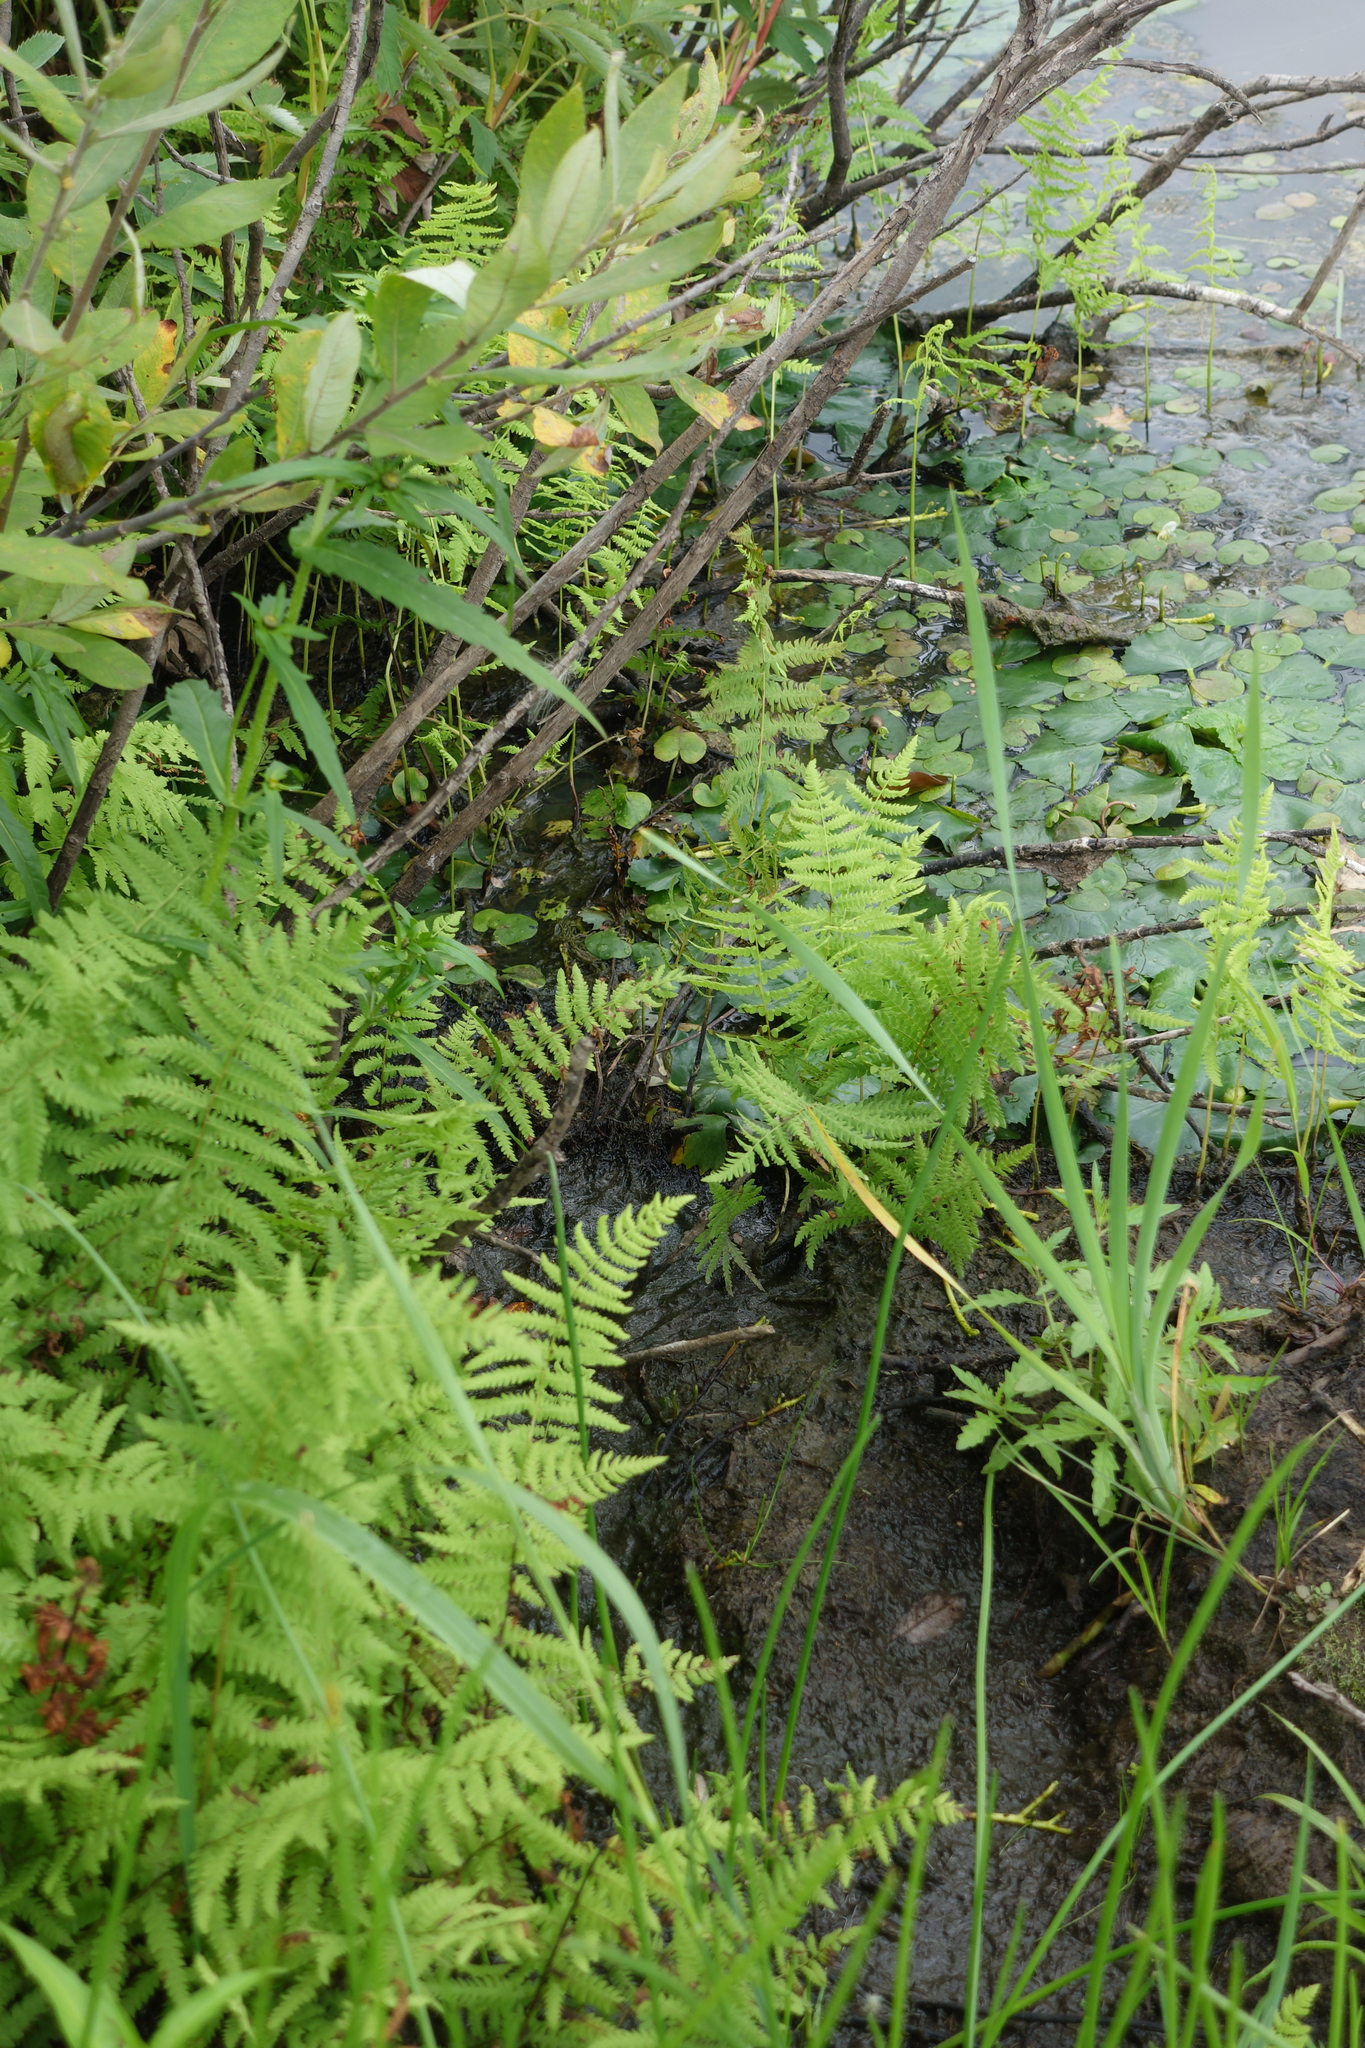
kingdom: Plantae
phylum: Tracheophyta
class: Polypodiopsida
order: Polypodiales
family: Thelypteridaceae
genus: Thelypteris
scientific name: Thelypteris palustris
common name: Marsh fern
